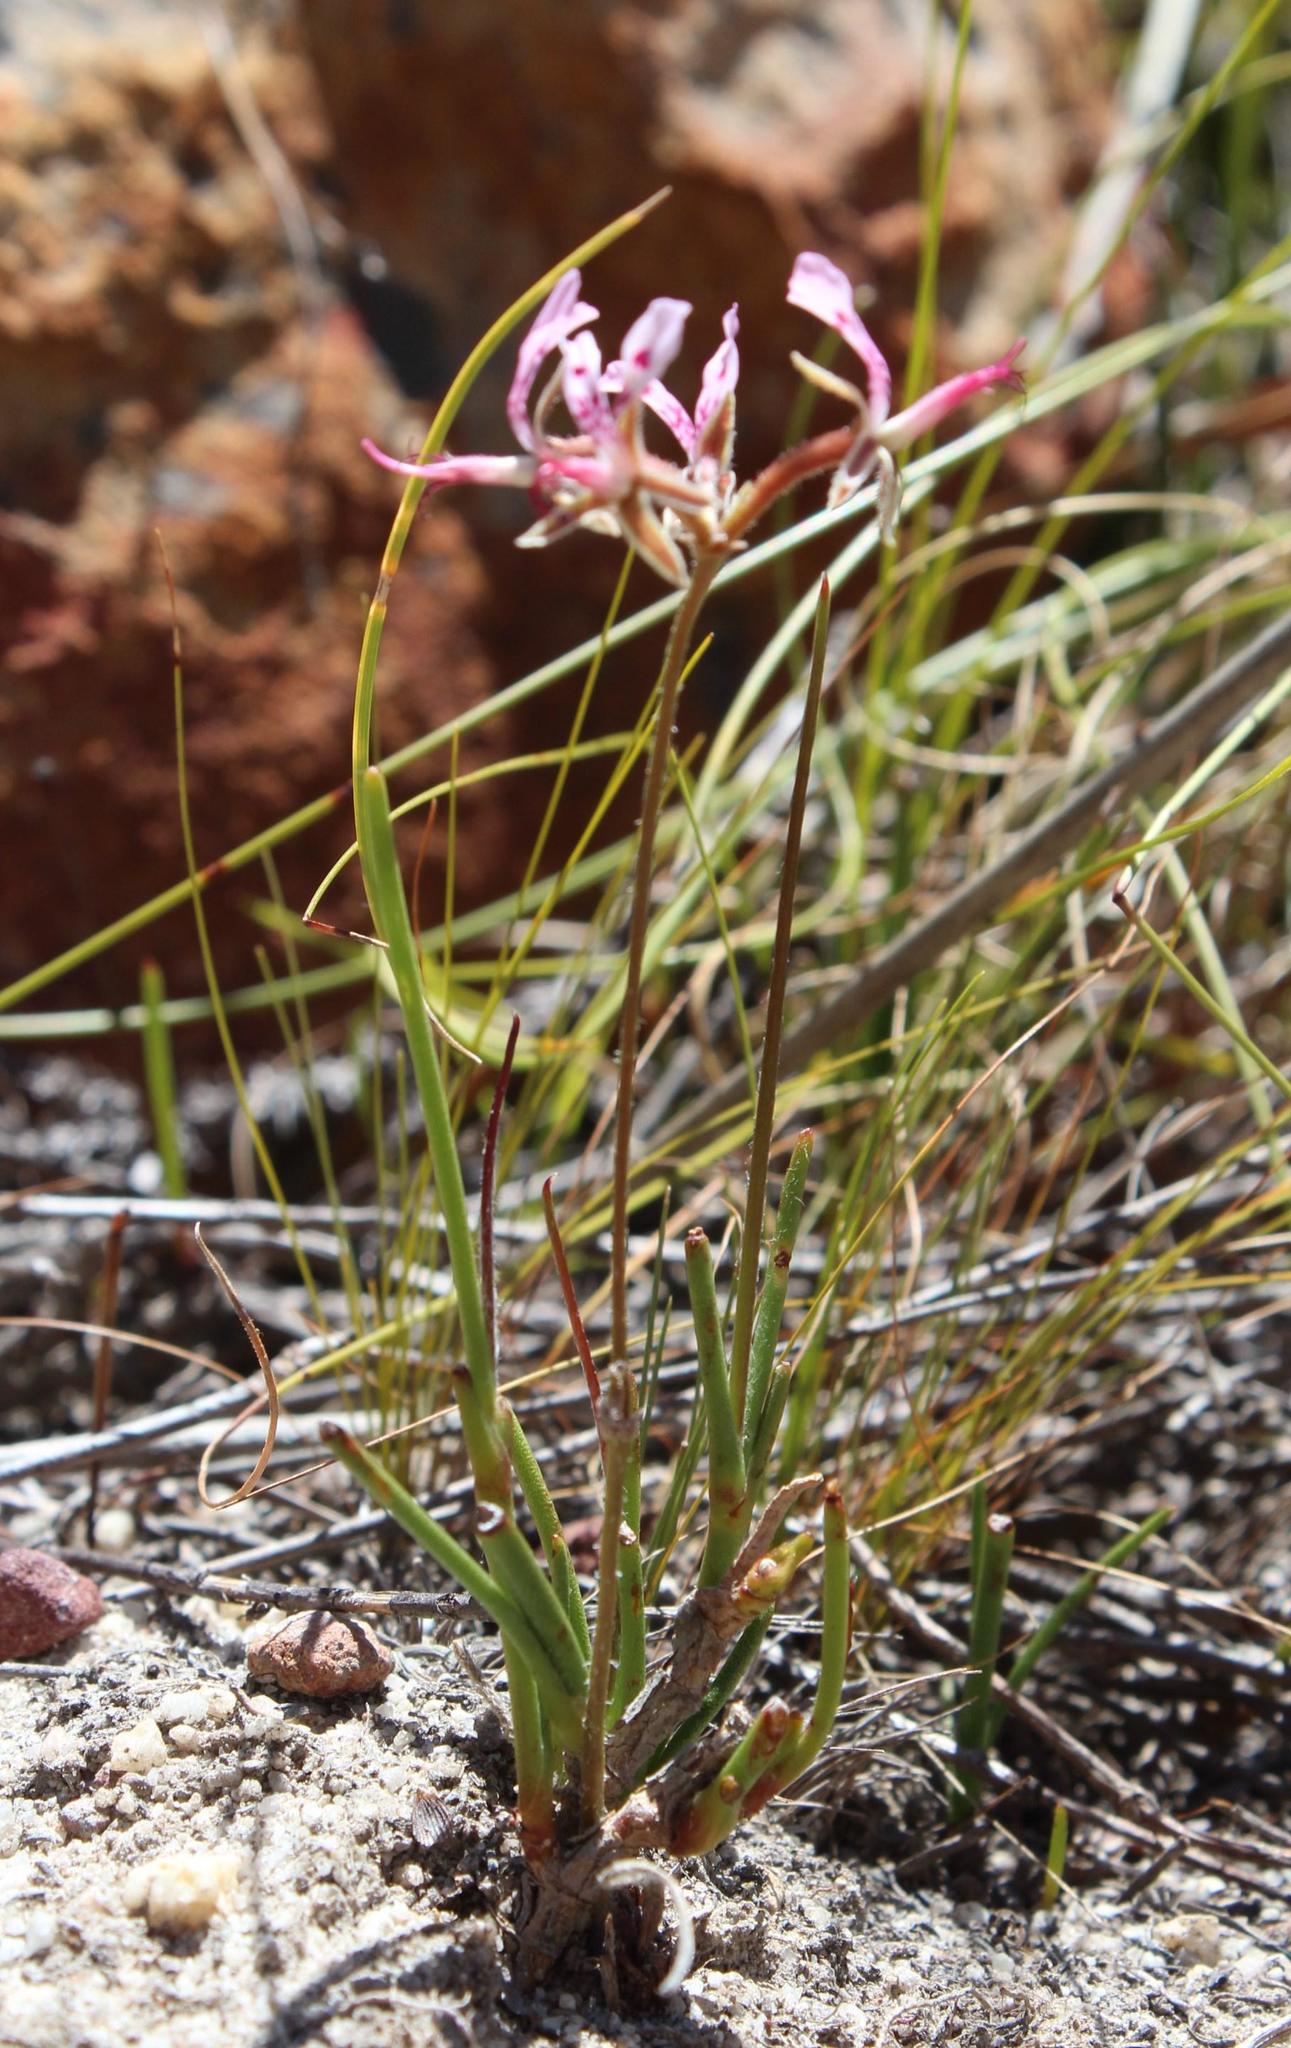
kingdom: Plantae
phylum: Tracheophyta
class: Magnoliopsida
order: Geraniales
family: Geraniaceae
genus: Pelargonium
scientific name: Pelargonium ternifolium
